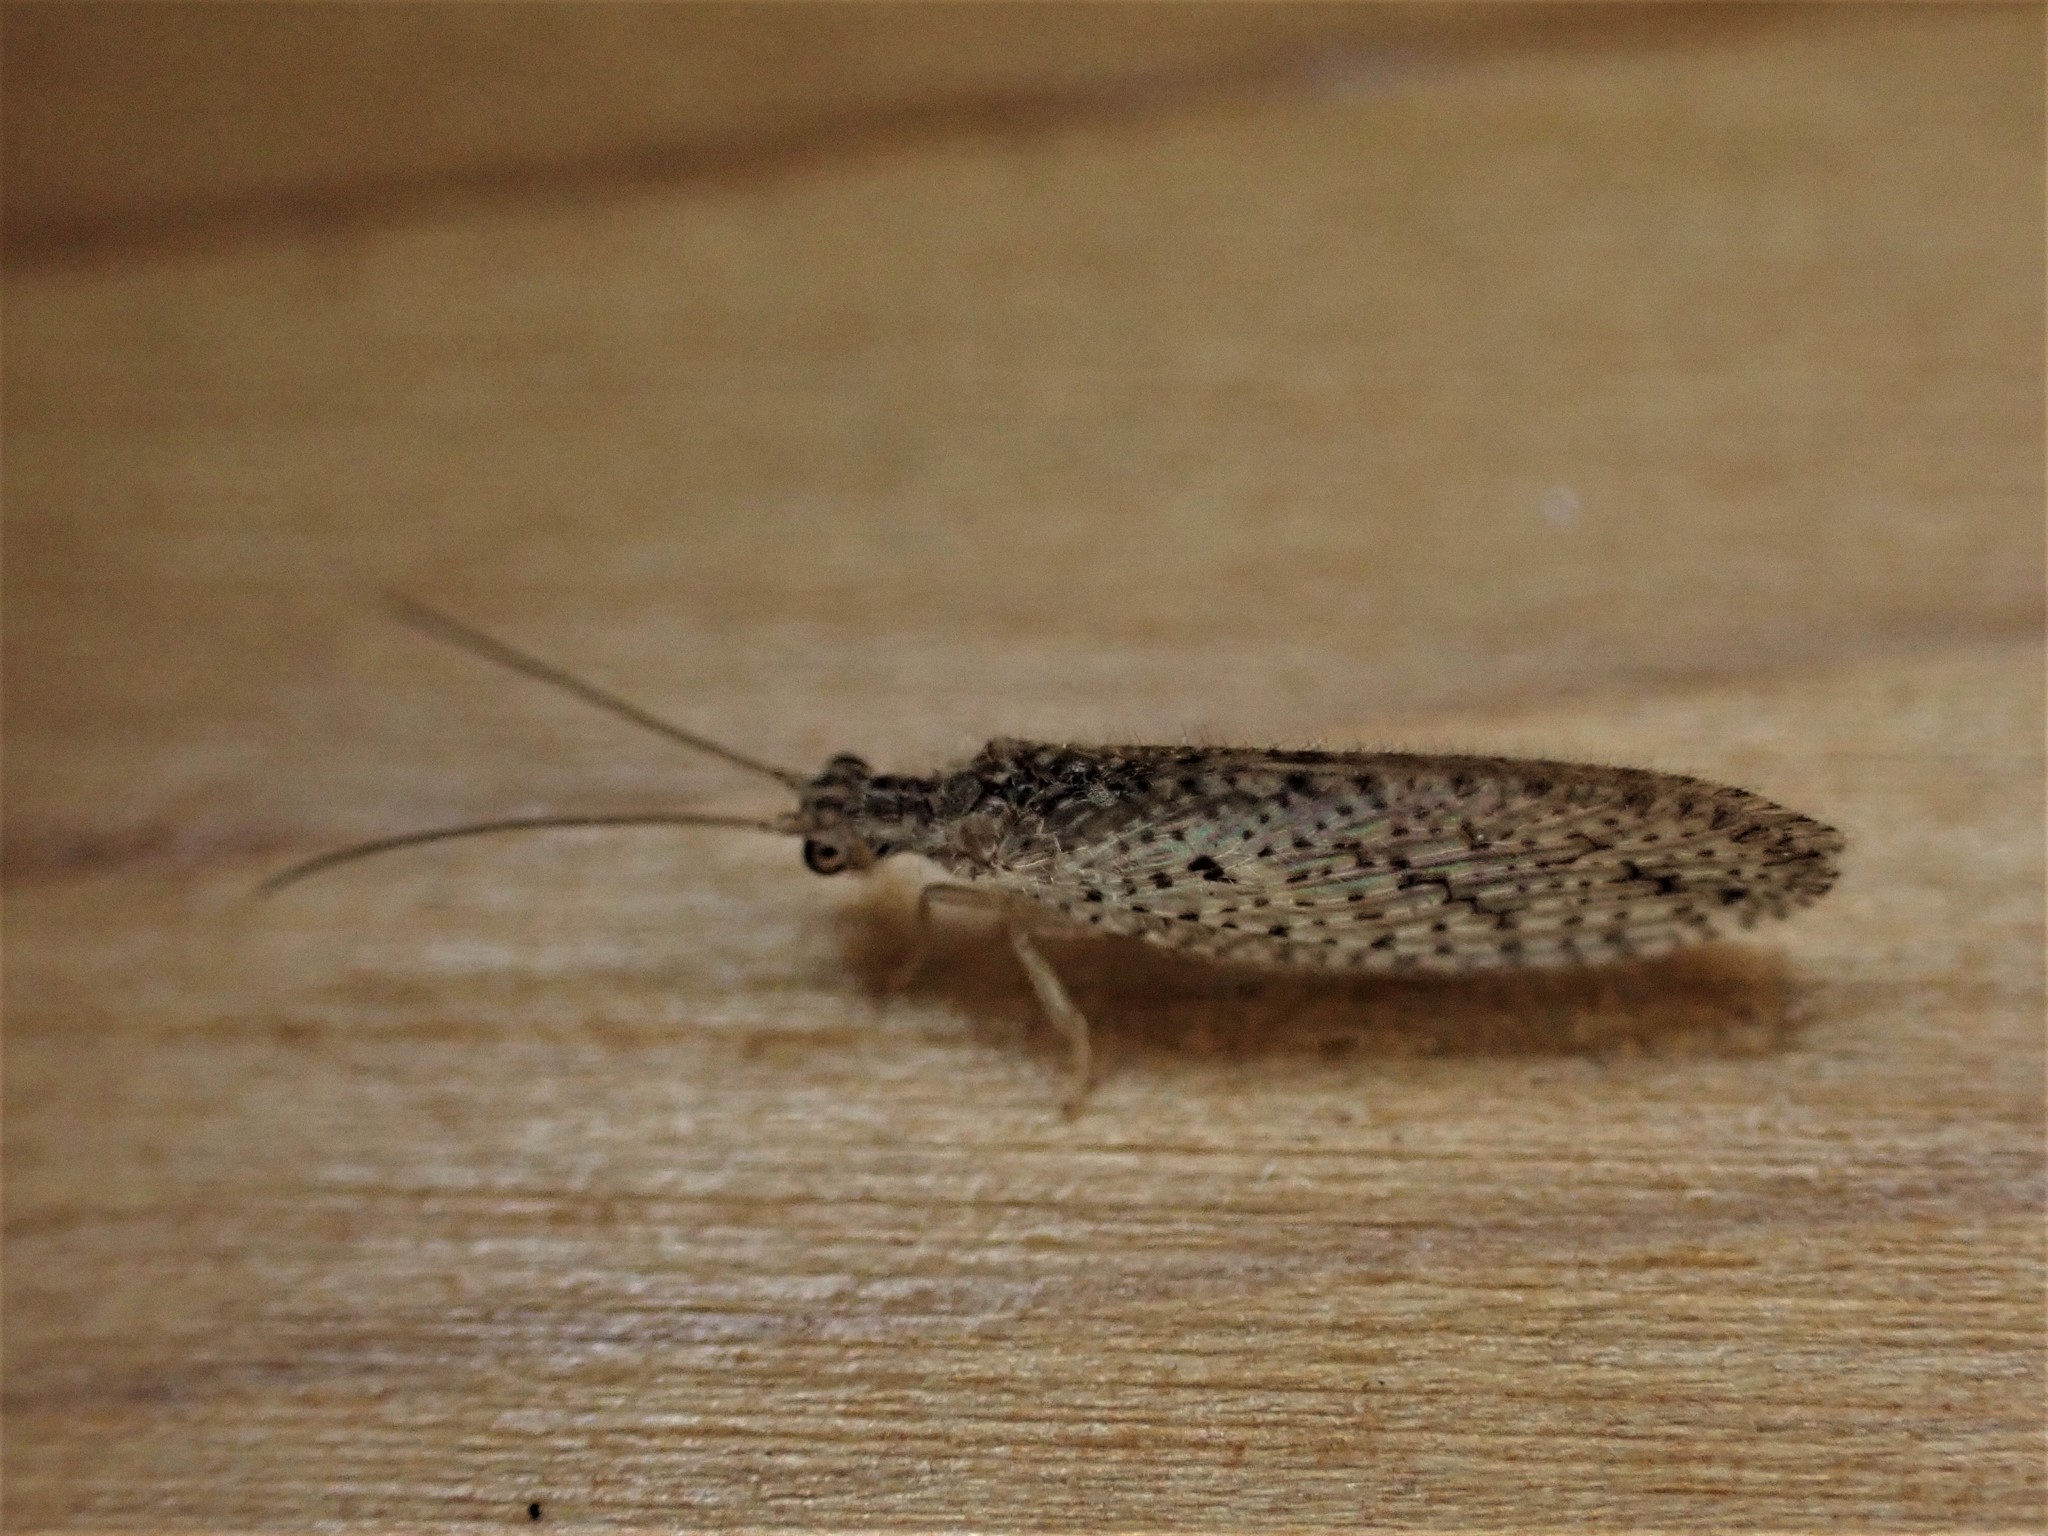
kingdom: Animalia
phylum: Arthropoda
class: Insecta
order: Neuroptera
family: Hemerobiidae
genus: Micromus
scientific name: Micromus tasmaniae
